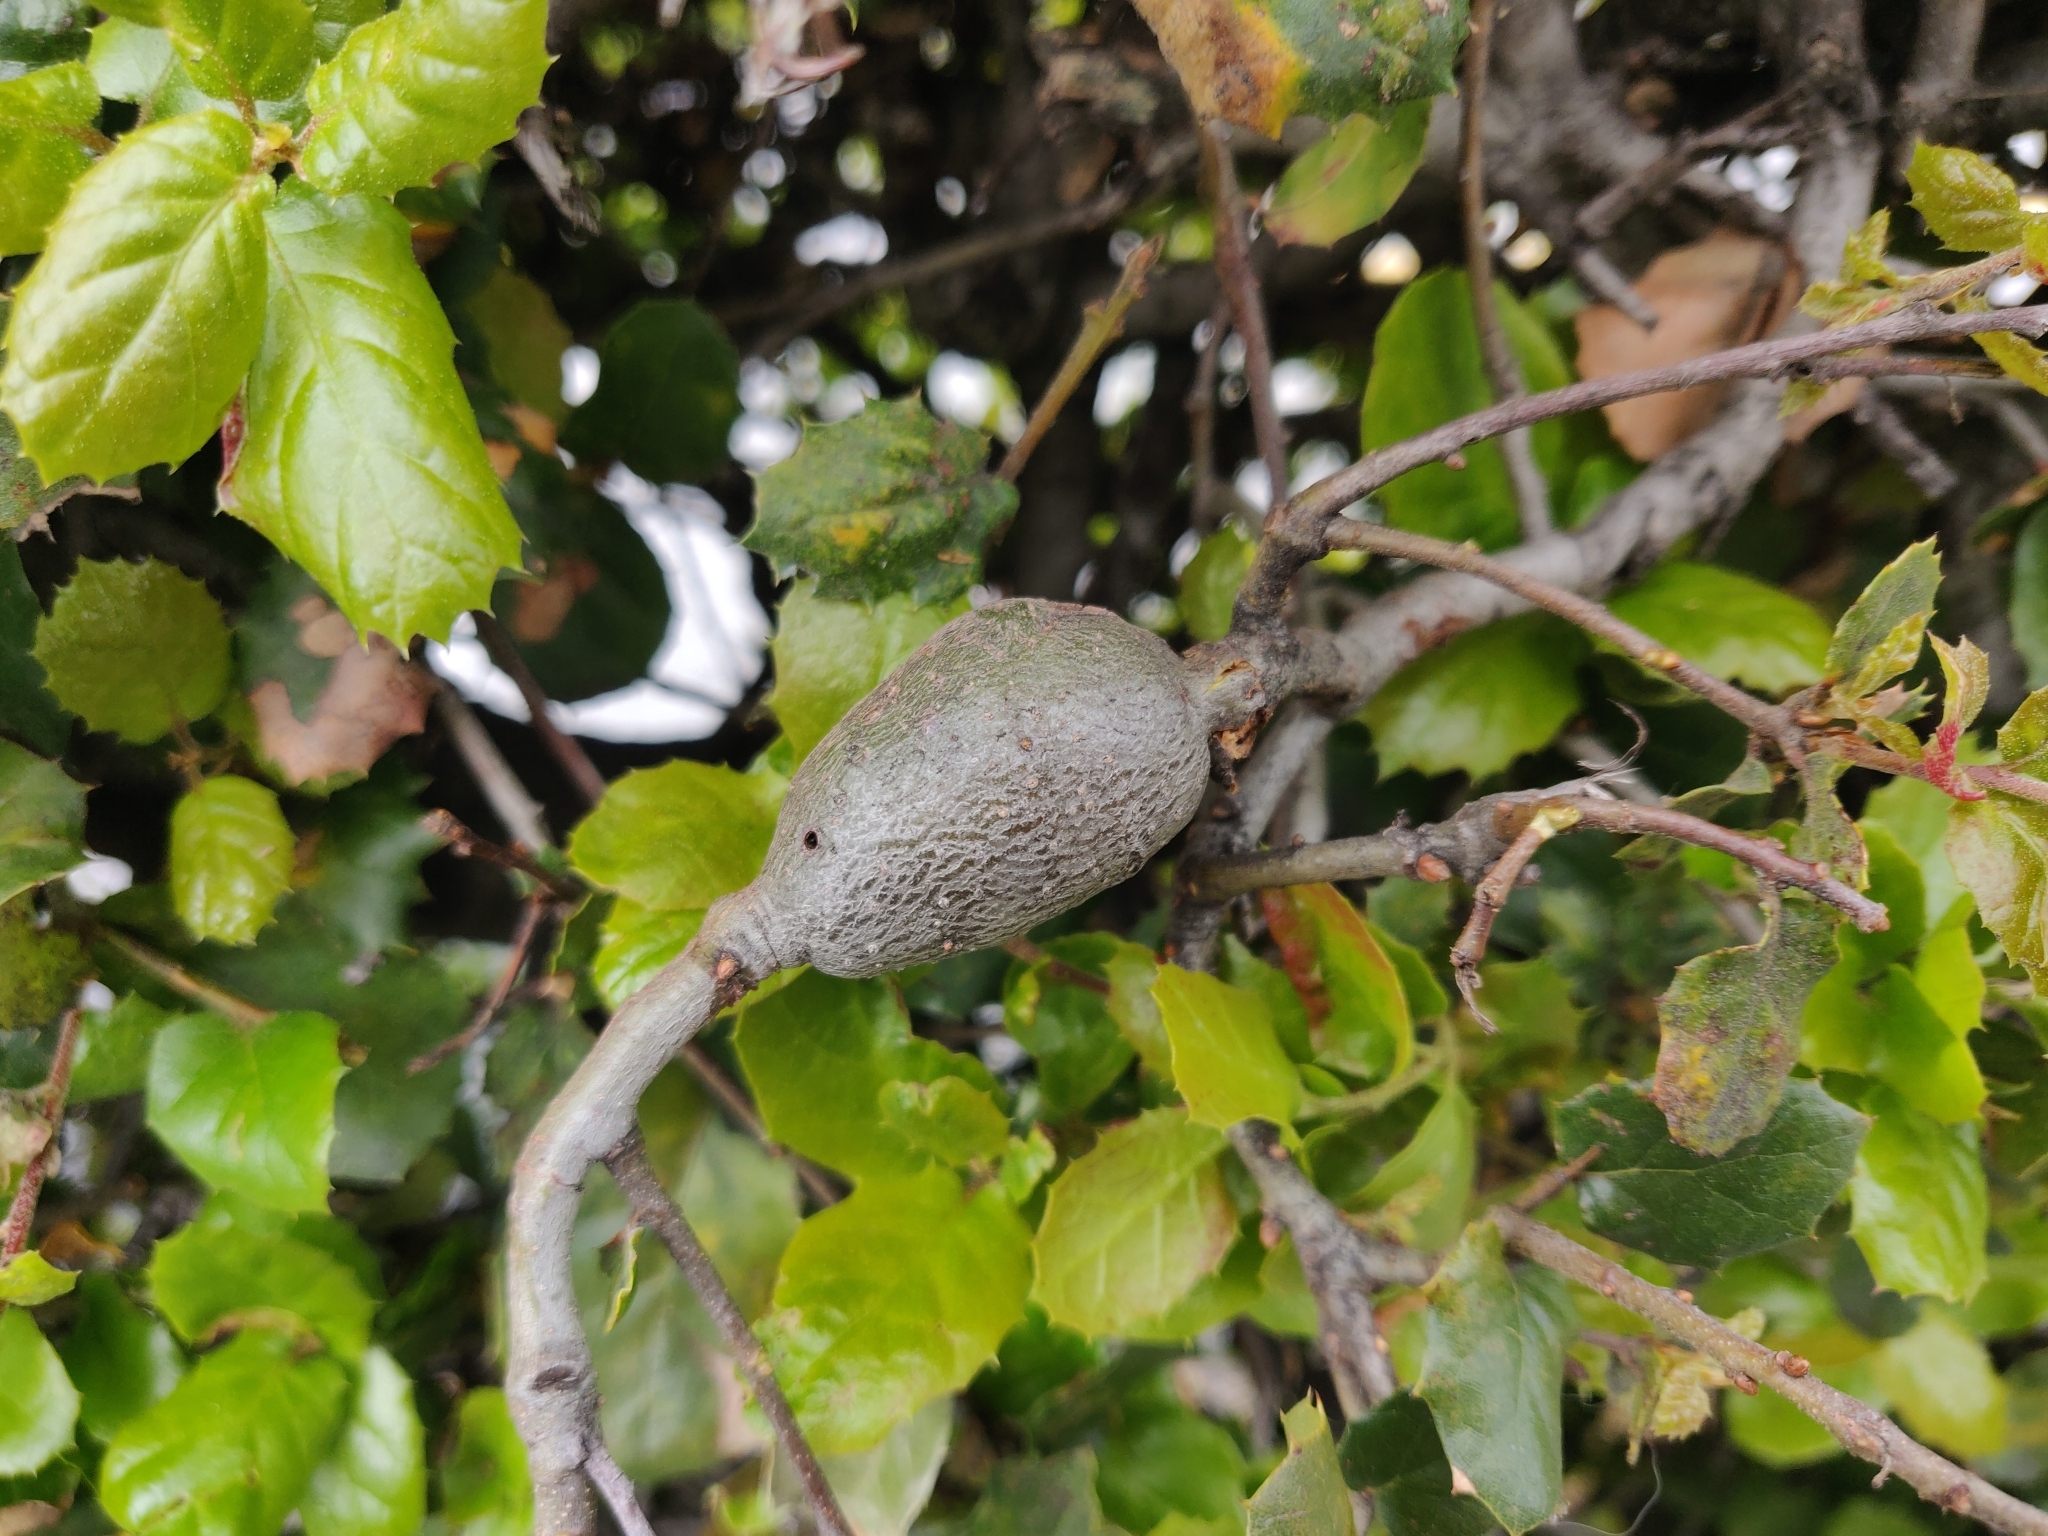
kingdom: Animalia
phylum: Arthropoda
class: Insecta
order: Hymenoptera
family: Cynipidae
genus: Callirhytis
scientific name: Callirhytis
